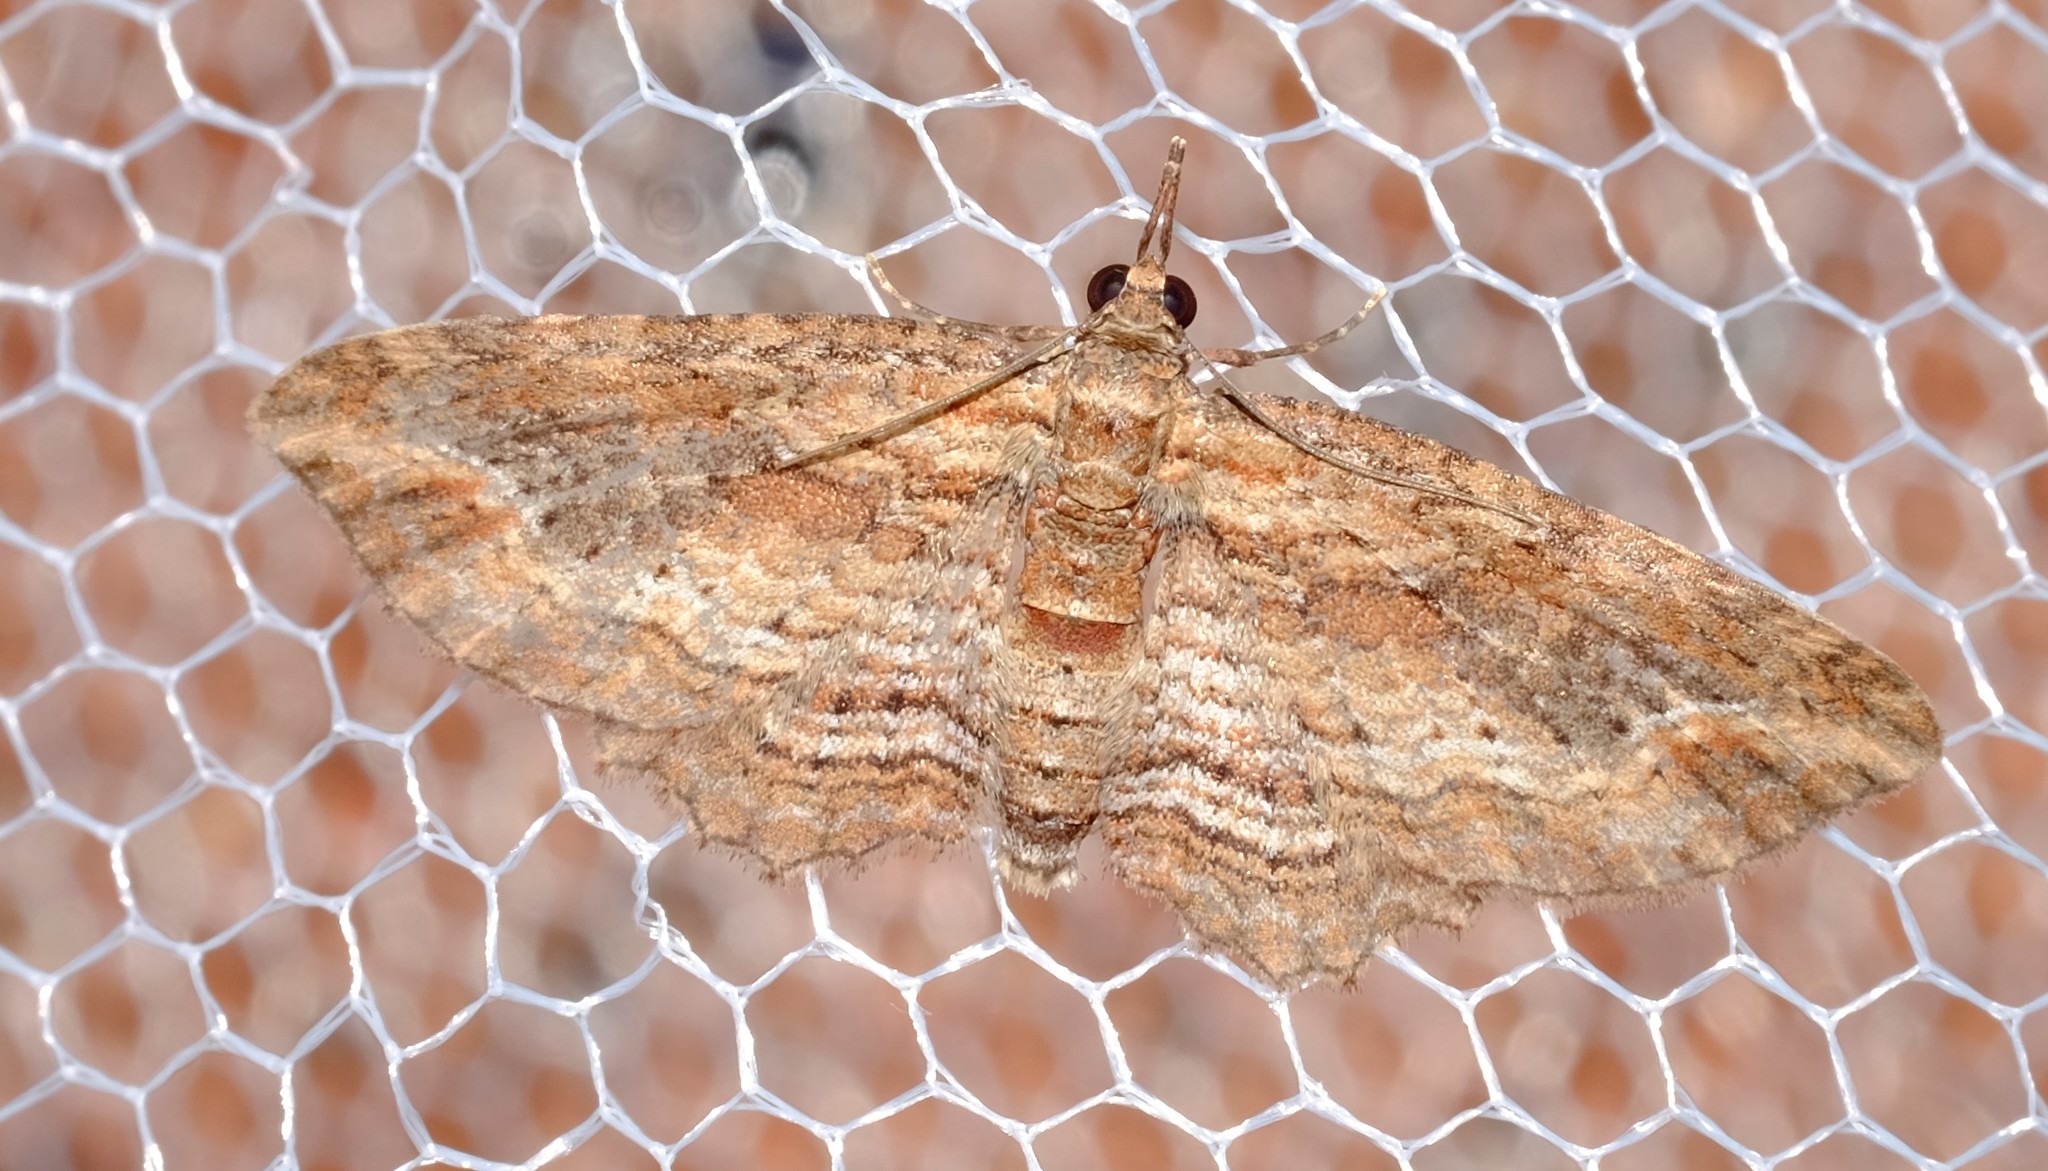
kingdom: Animalia
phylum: Arthropoda
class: Insecta
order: Lepidoptera
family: Geometridae
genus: Chloroclystis
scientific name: Chloroclystis filata
